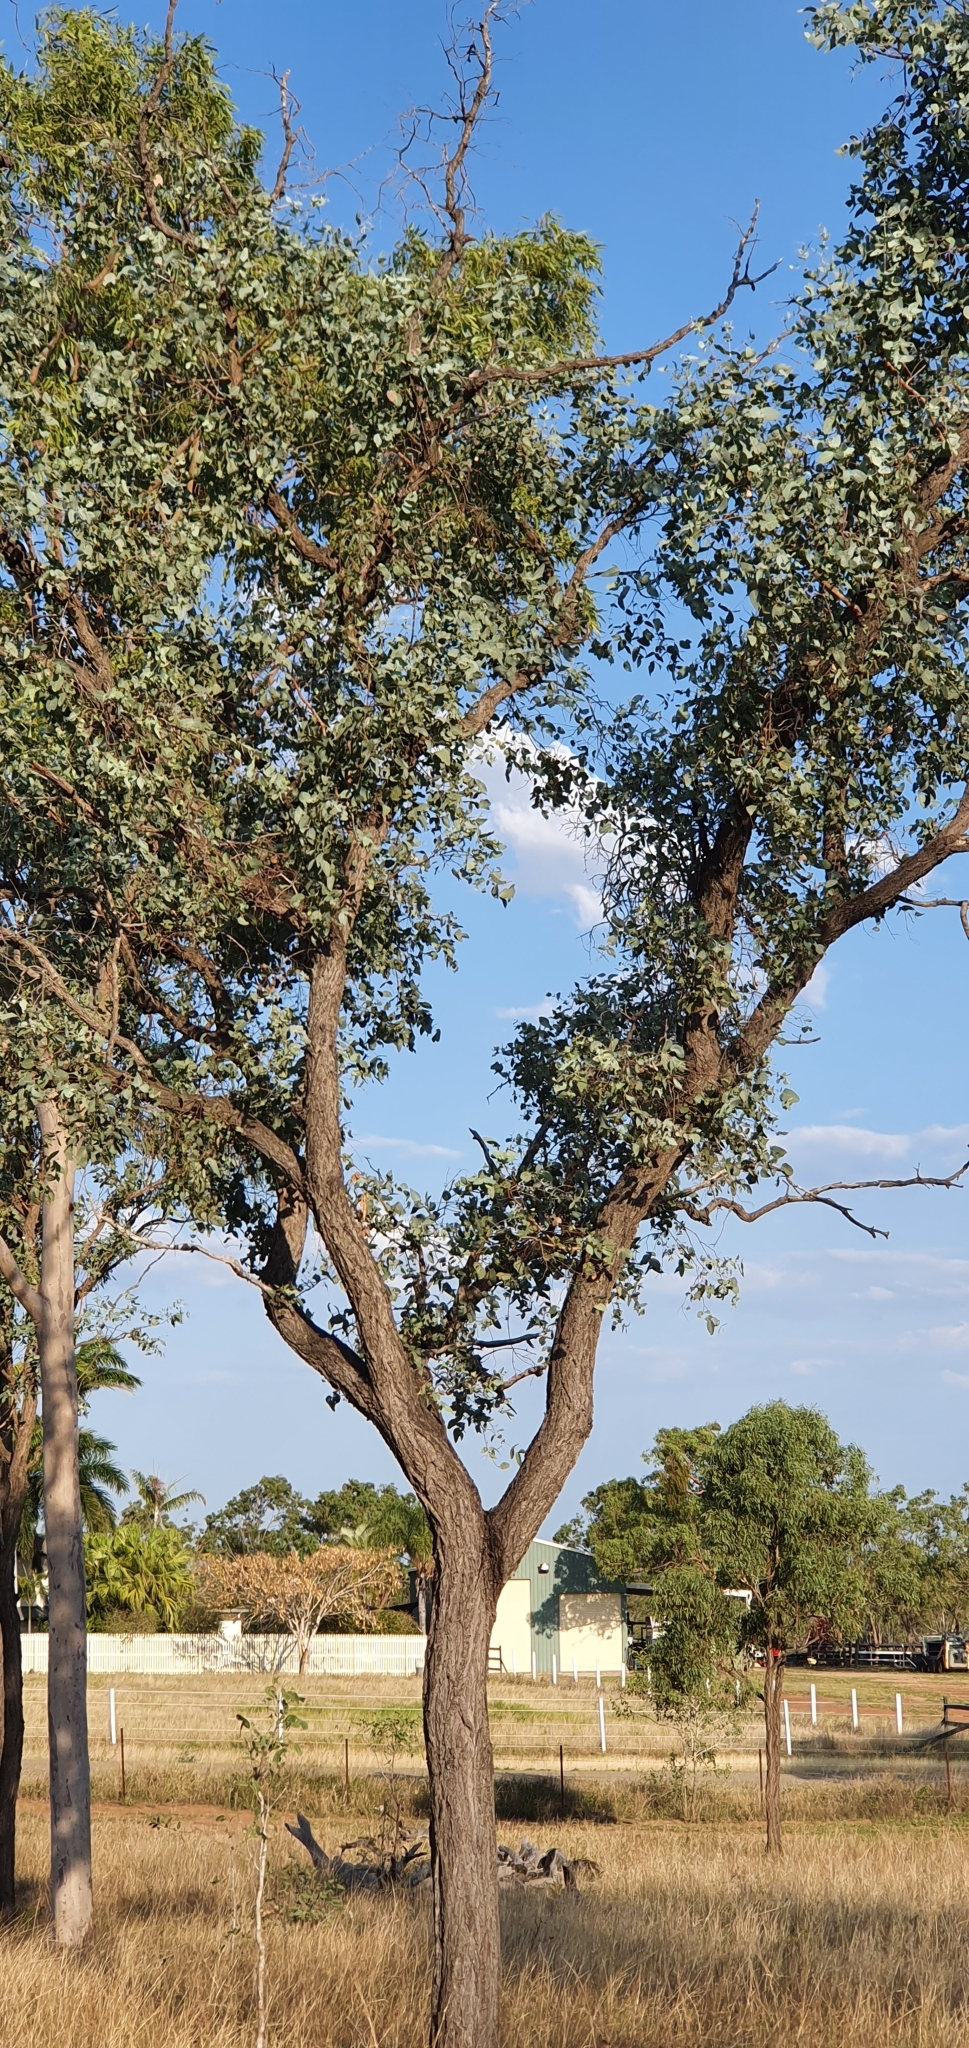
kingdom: Plantae
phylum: Tracheophyta
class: Magnoliopsida
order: Myrtales
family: Myrtaceae
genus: Eucalyptus
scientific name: Eucalyptus melanophloia
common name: Silver-leaved-ironbark
